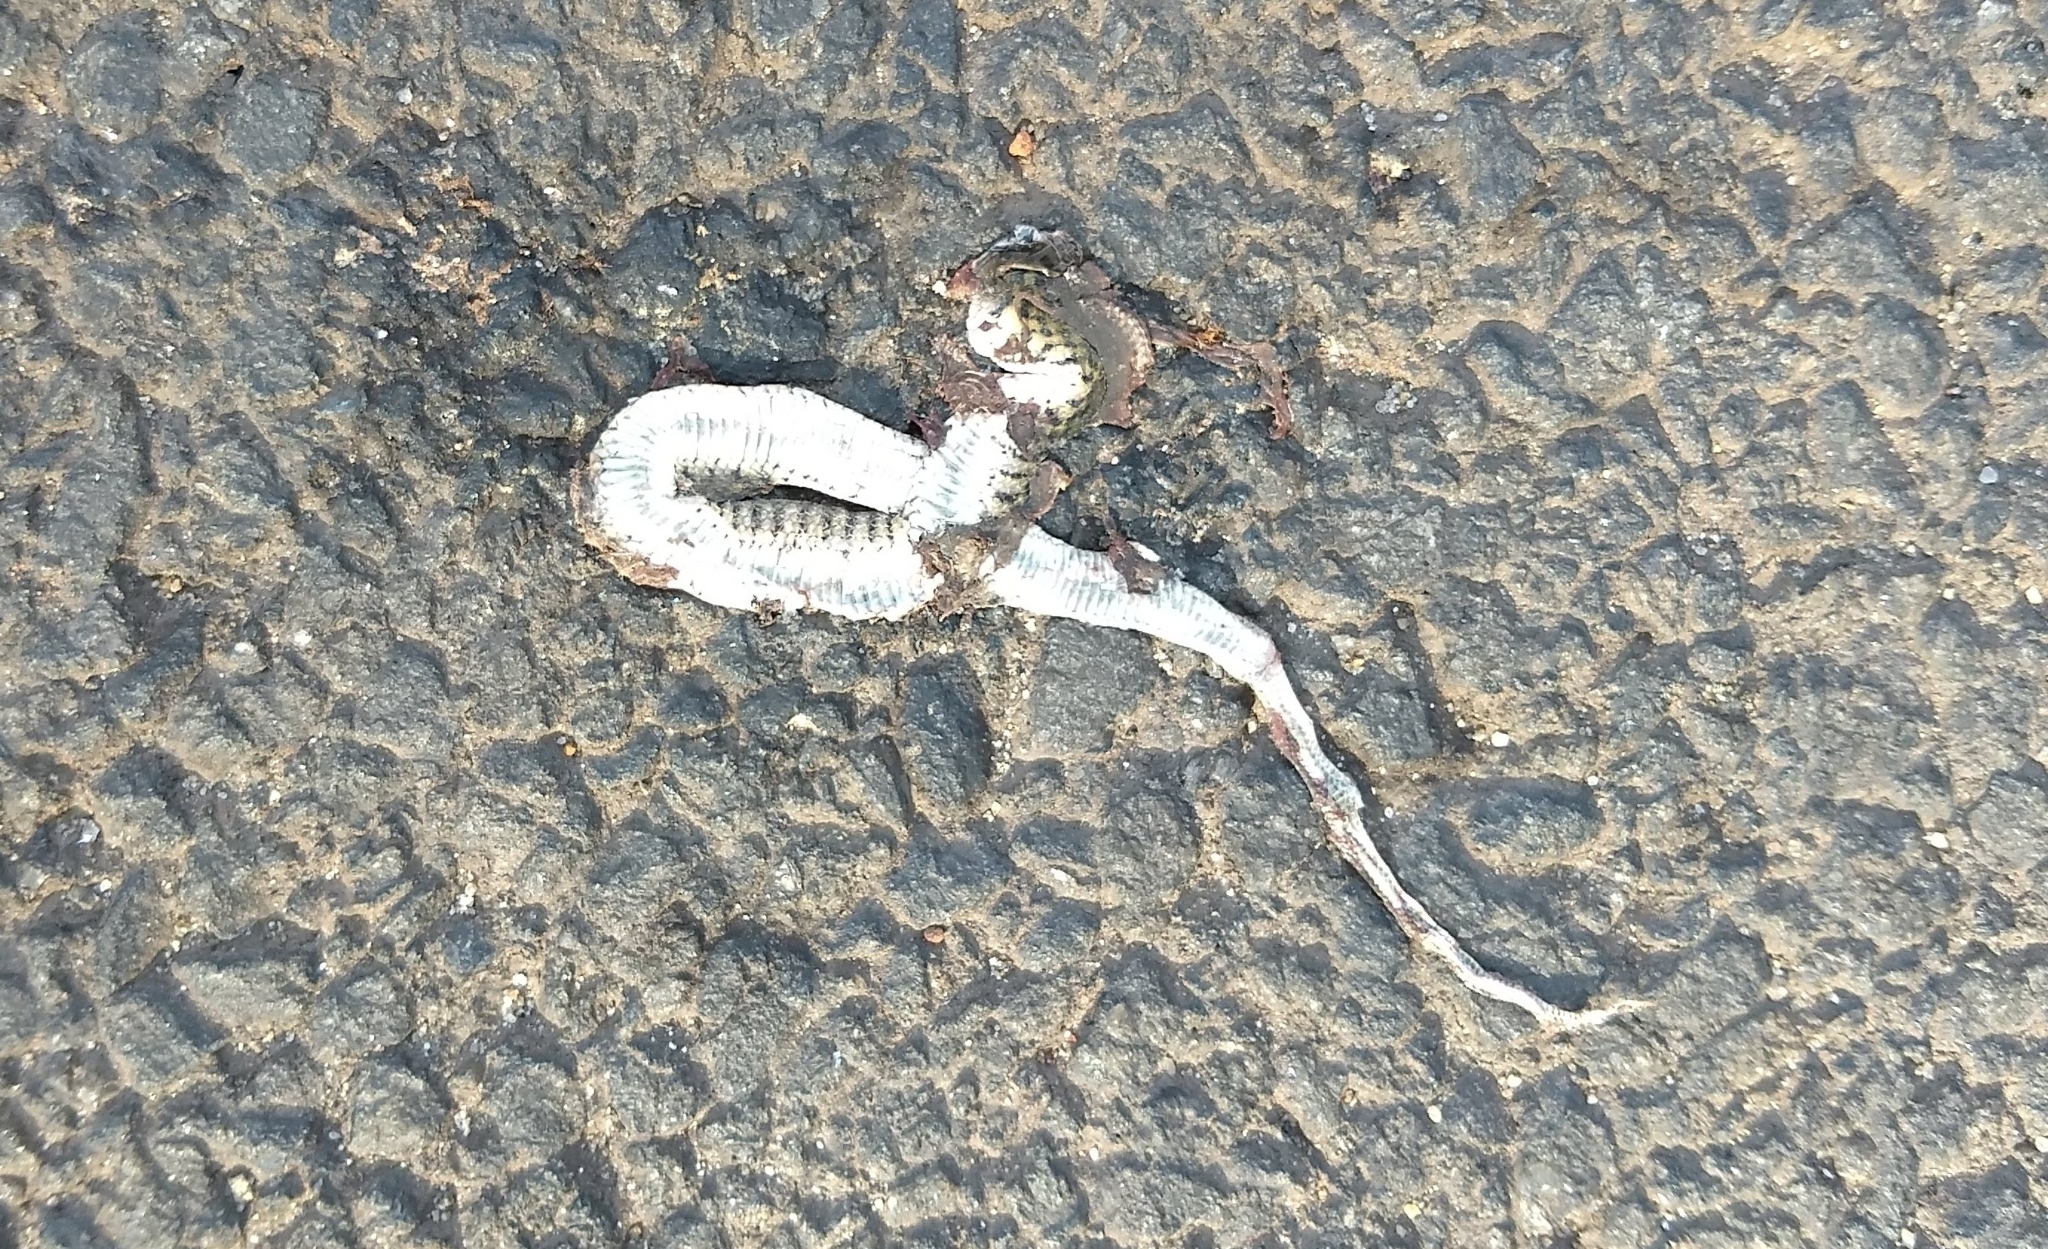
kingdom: Animalia
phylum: Chordata
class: Squamata
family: Colubridae
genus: Fowlea
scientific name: Fowlea piscator
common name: Asiatic water snake
